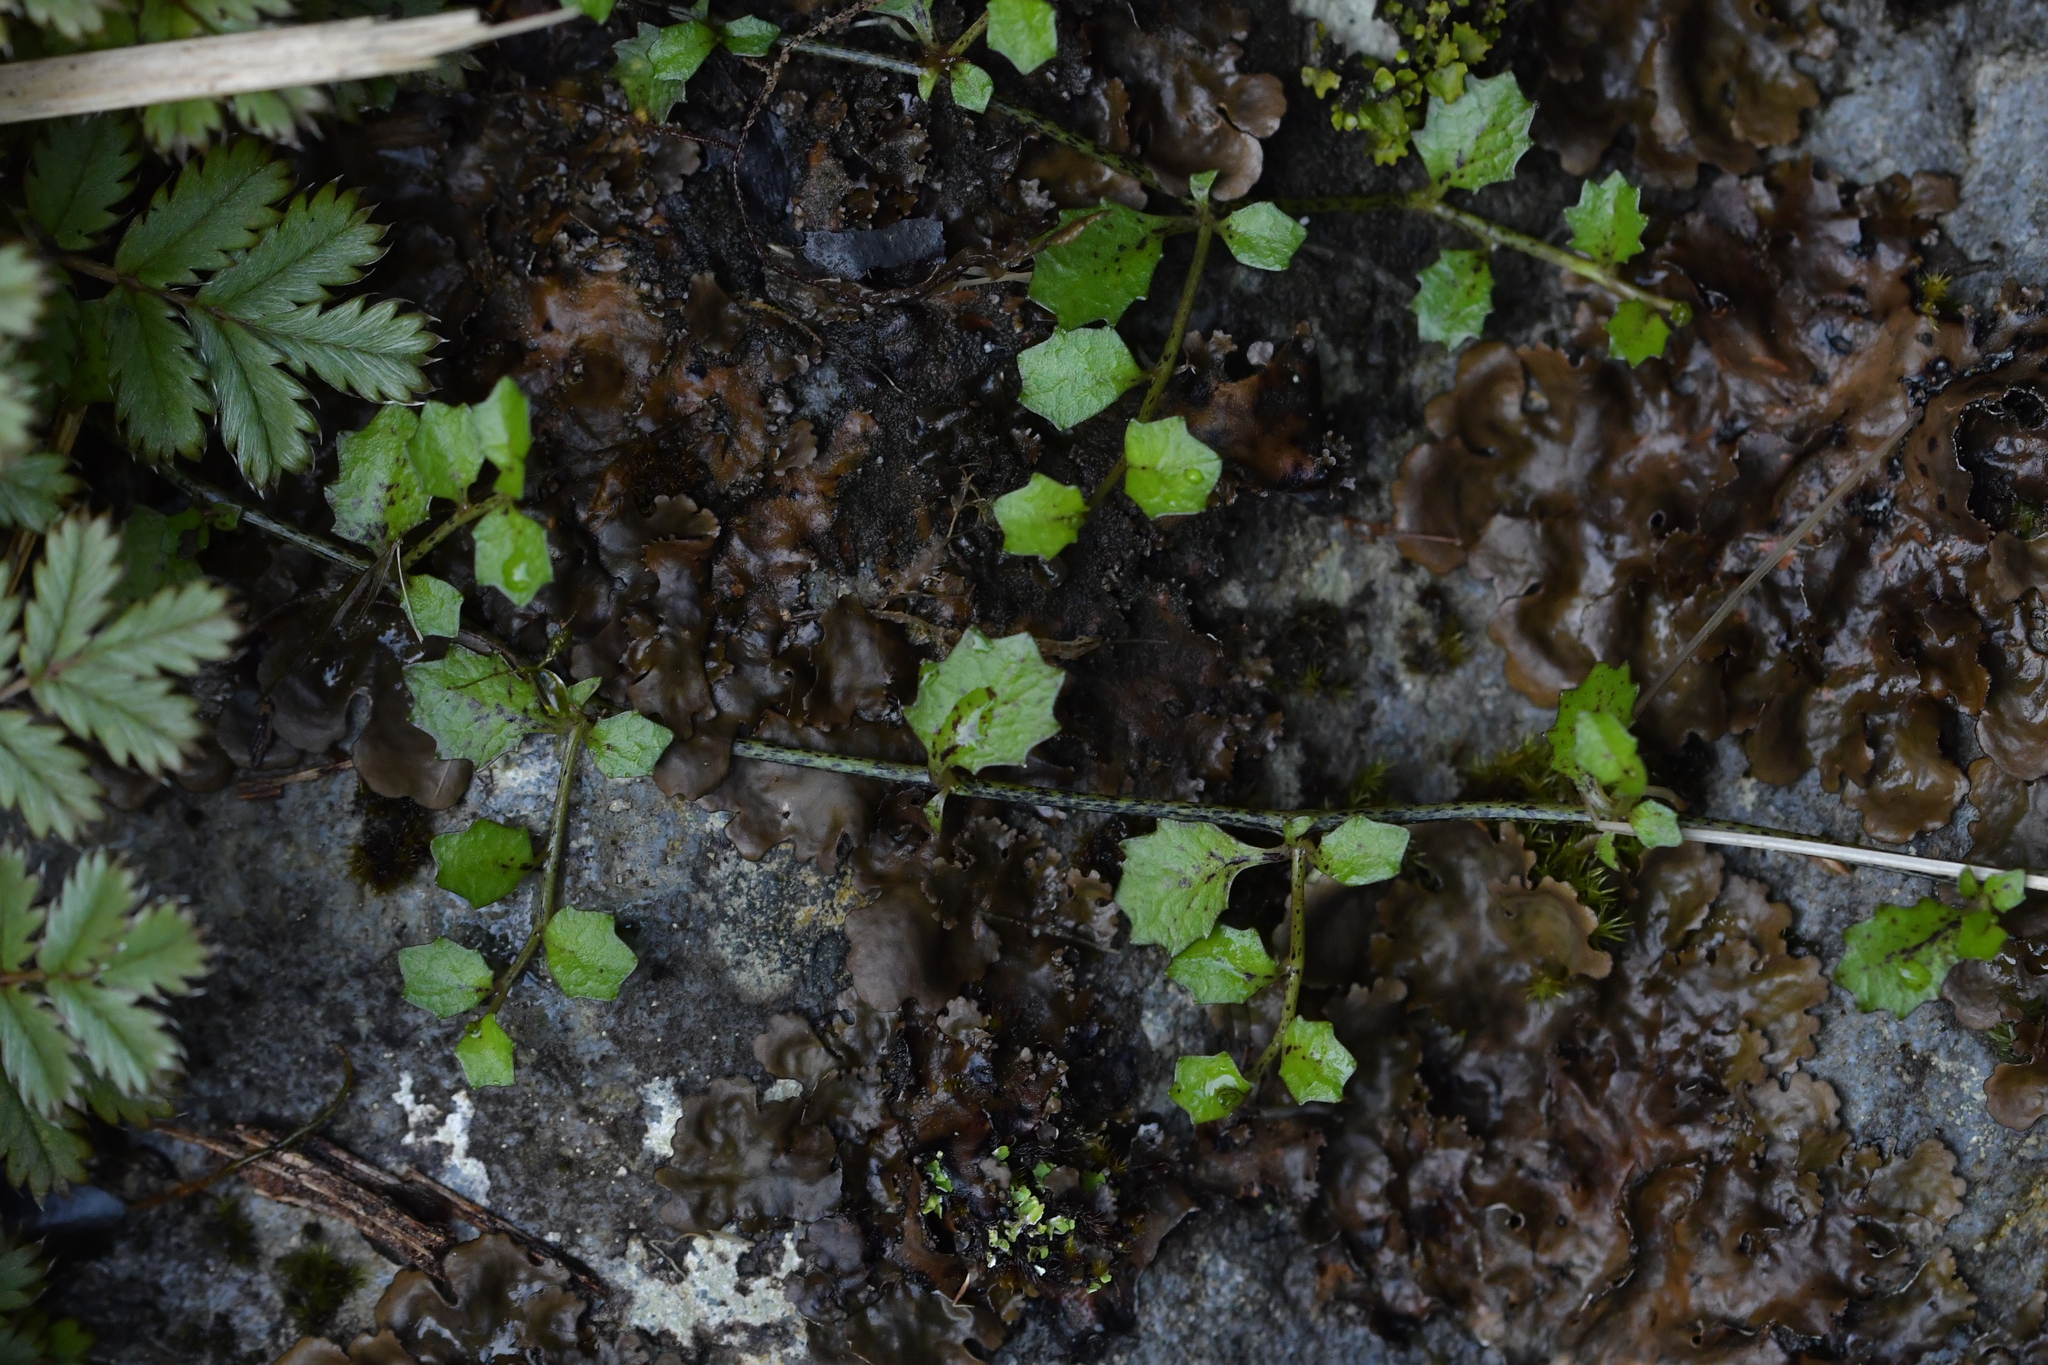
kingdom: Plantae
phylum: Tracheophyta
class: Magnoliopsida
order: Asterales
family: Campanulaceae
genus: Lobelia
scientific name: Lobelia angulata
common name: Lawn lobelia
